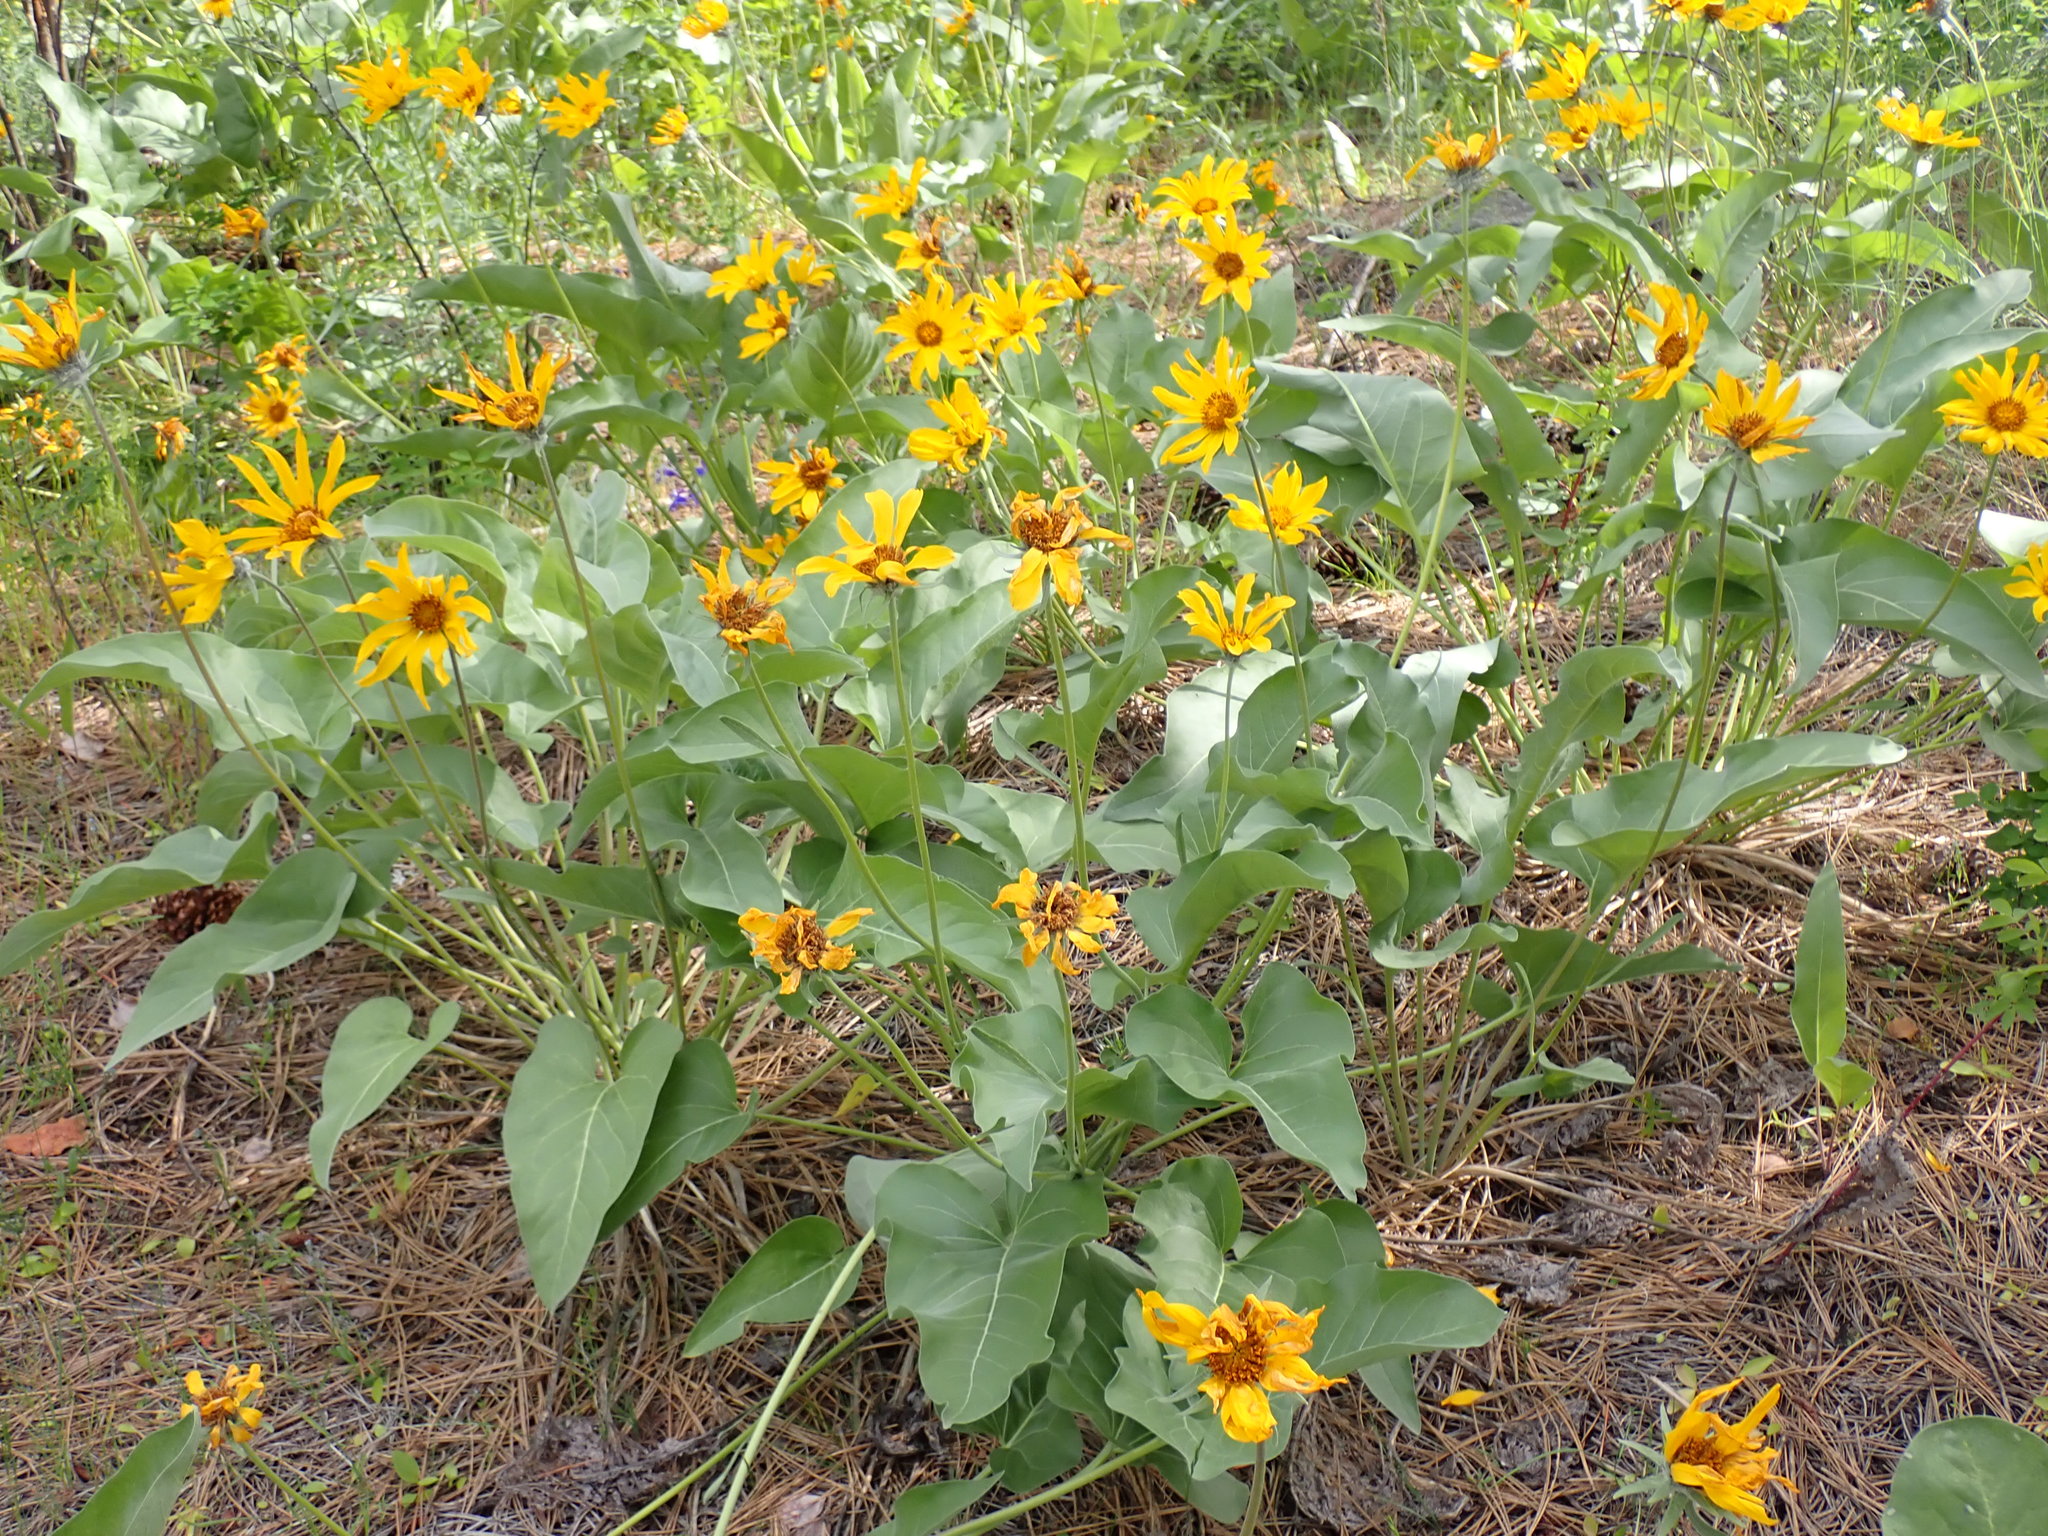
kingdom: Plantae
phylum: Tracheophyta
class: Magnoliopsida
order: Asterales
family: Asteraceae
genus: Wyethia
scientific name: Wyethia sagittata
